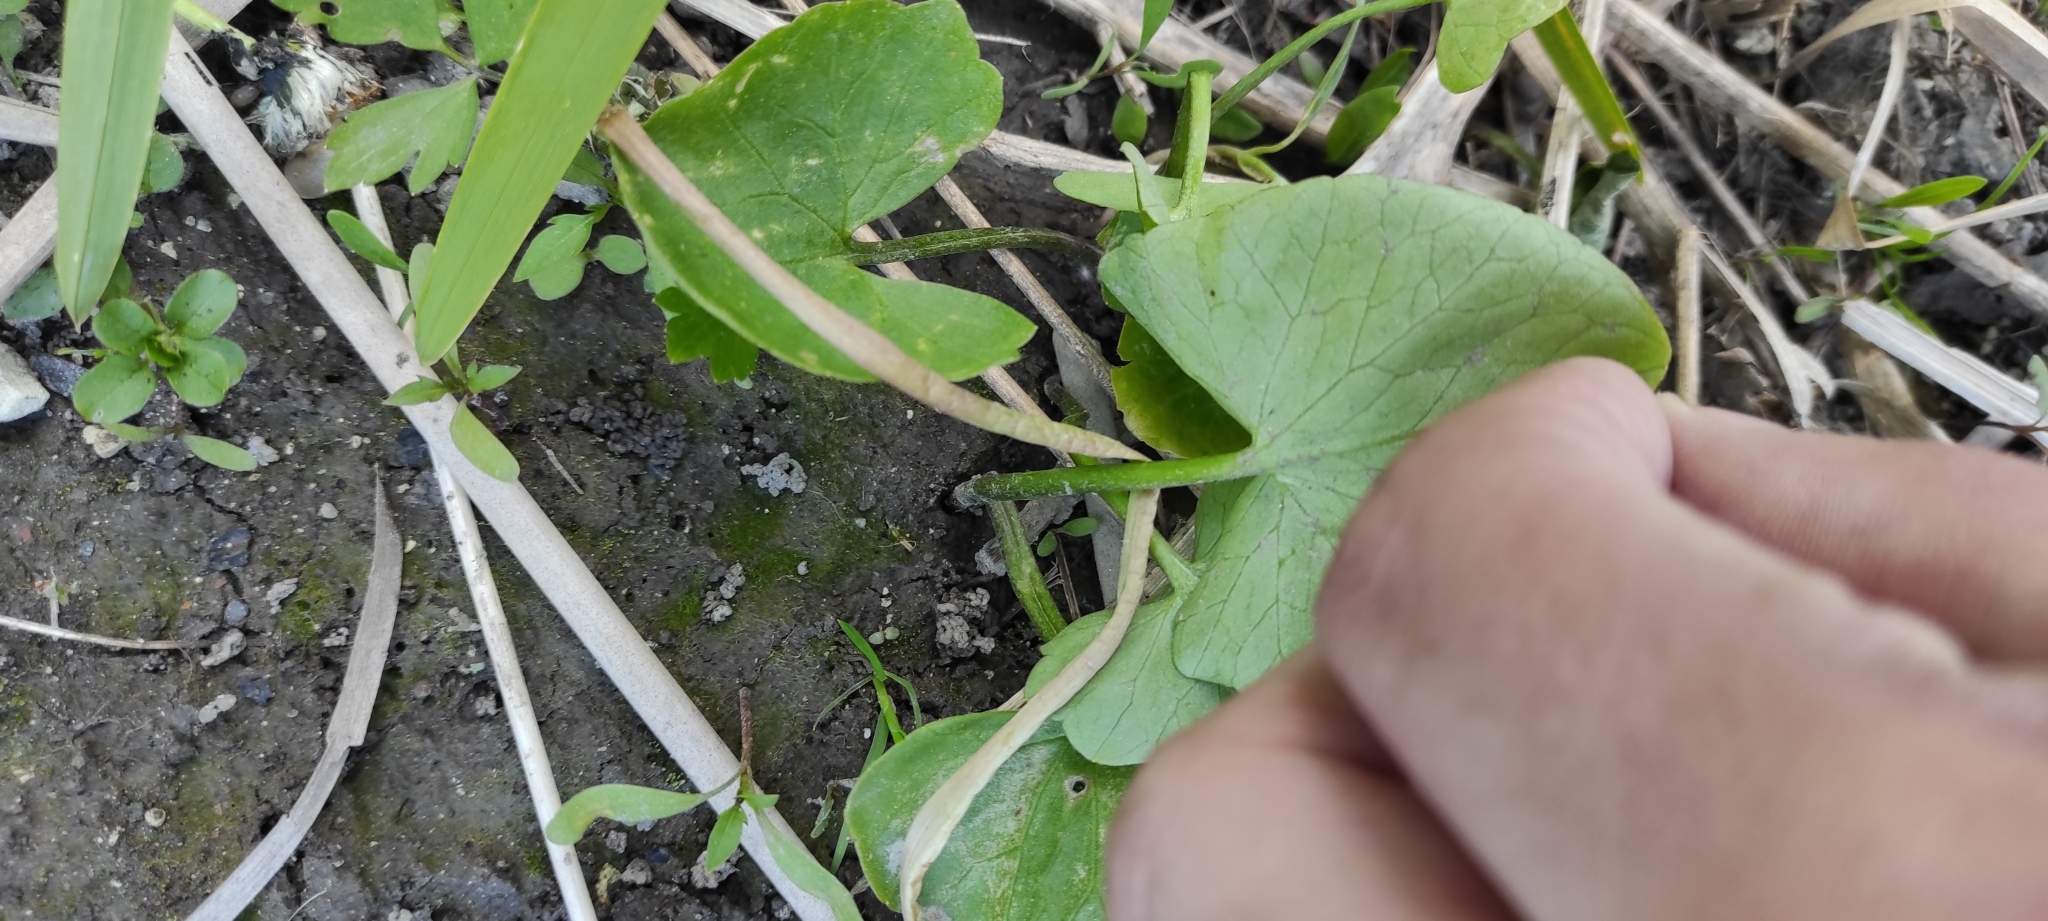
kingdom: Plantae
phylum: Tracheophyta
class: Magnoliopsida
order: Ranunculales
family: Ranunculaceae
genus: Caltha
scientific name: Caltha palustris
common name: Marsh marigold
